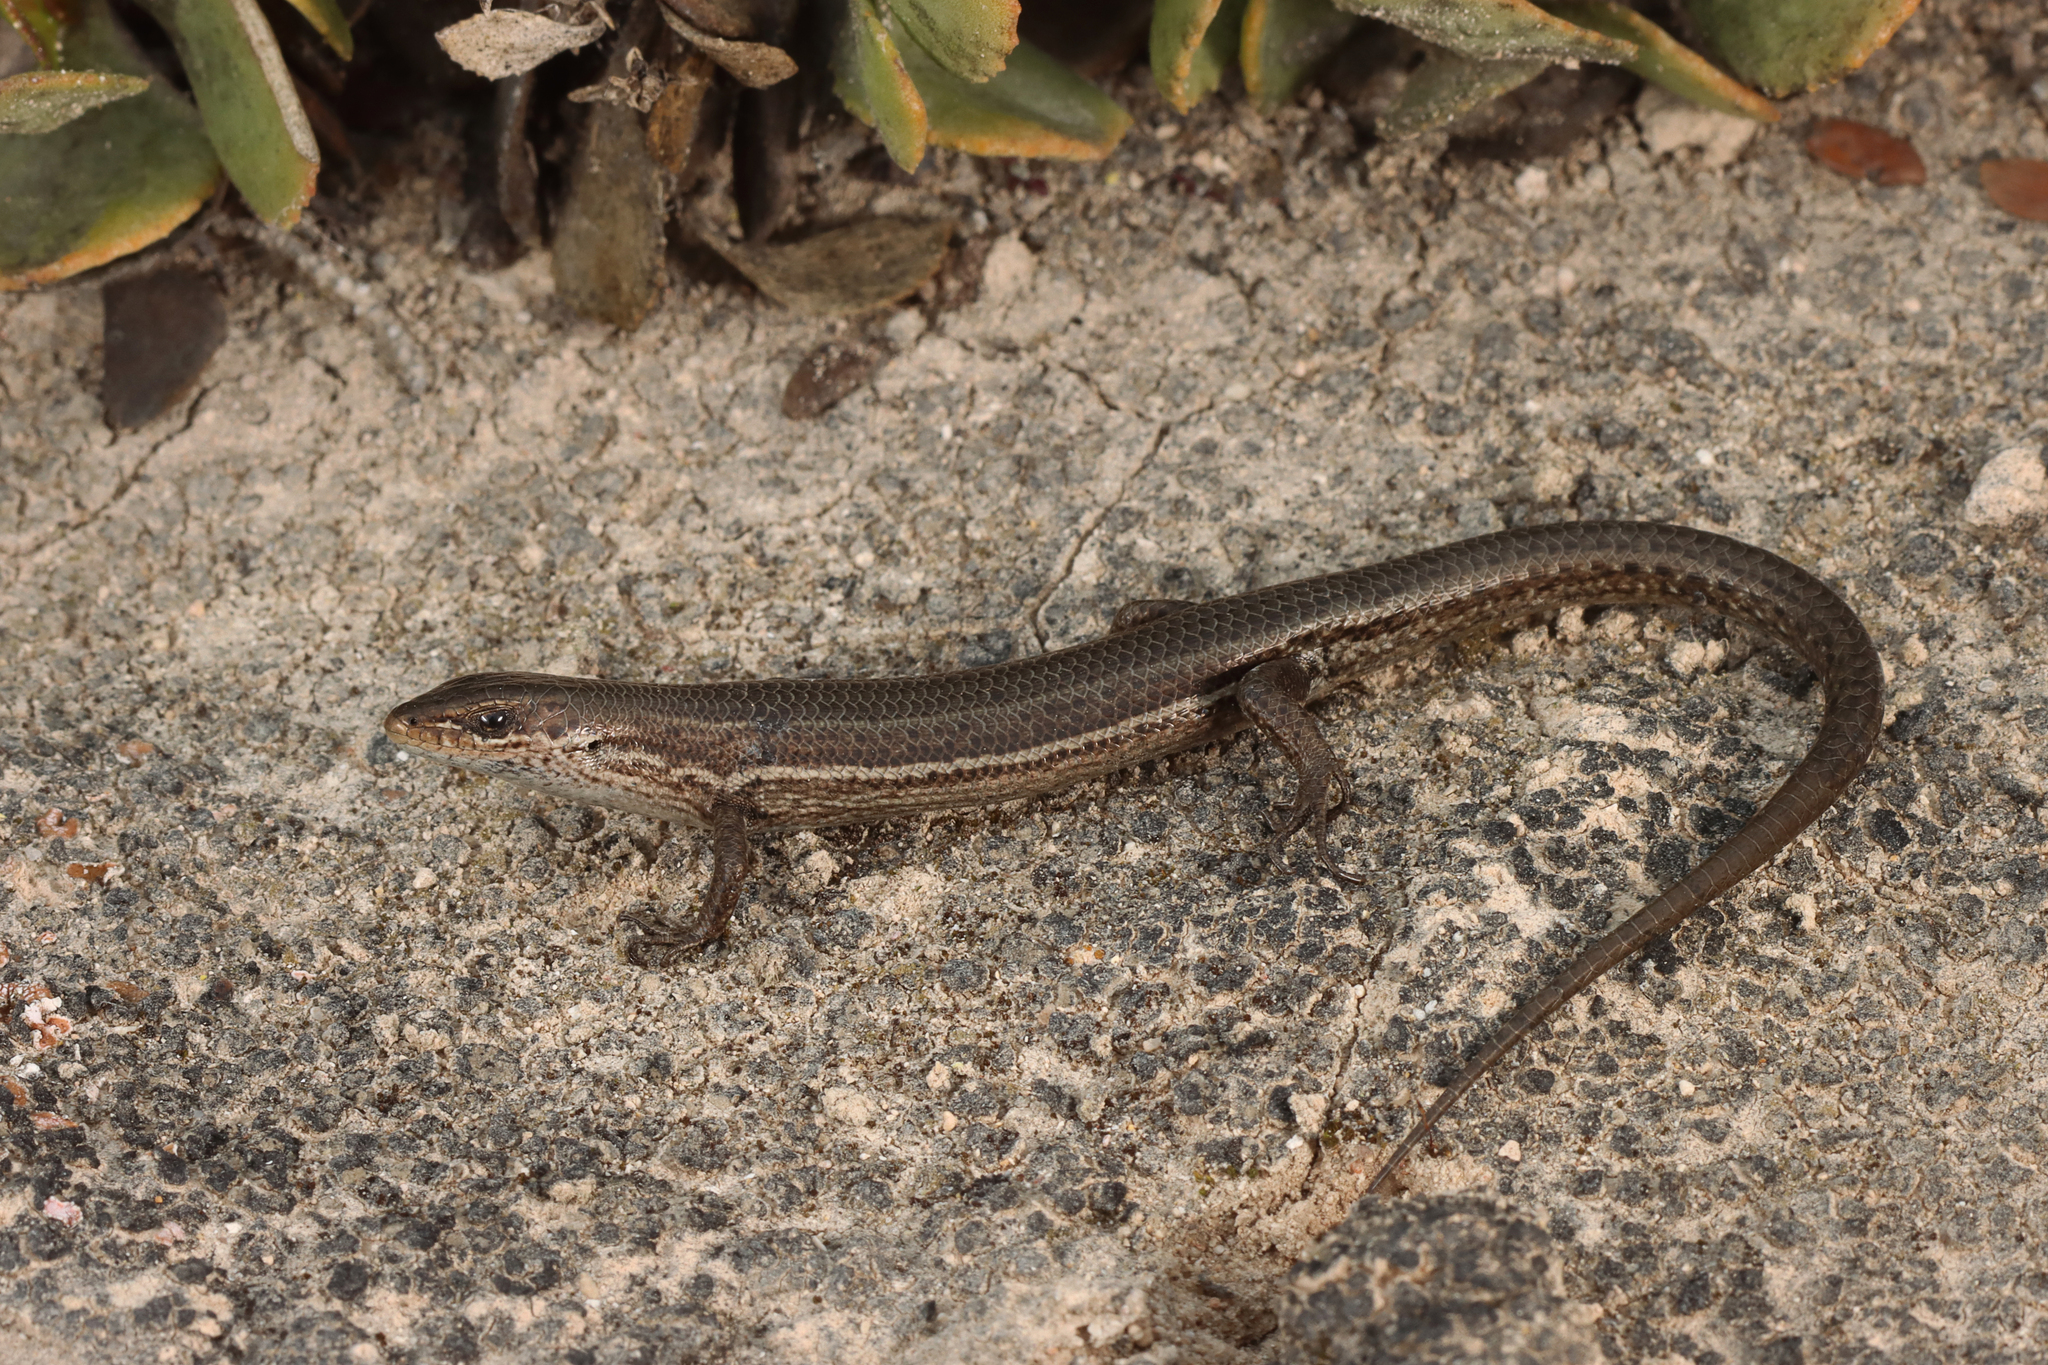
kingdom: Animalia
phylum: Chordata
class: Squamata
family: Scincidae
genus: Pseudemoia
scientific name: Pseudemoia baudini
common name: Baudin’s skink
